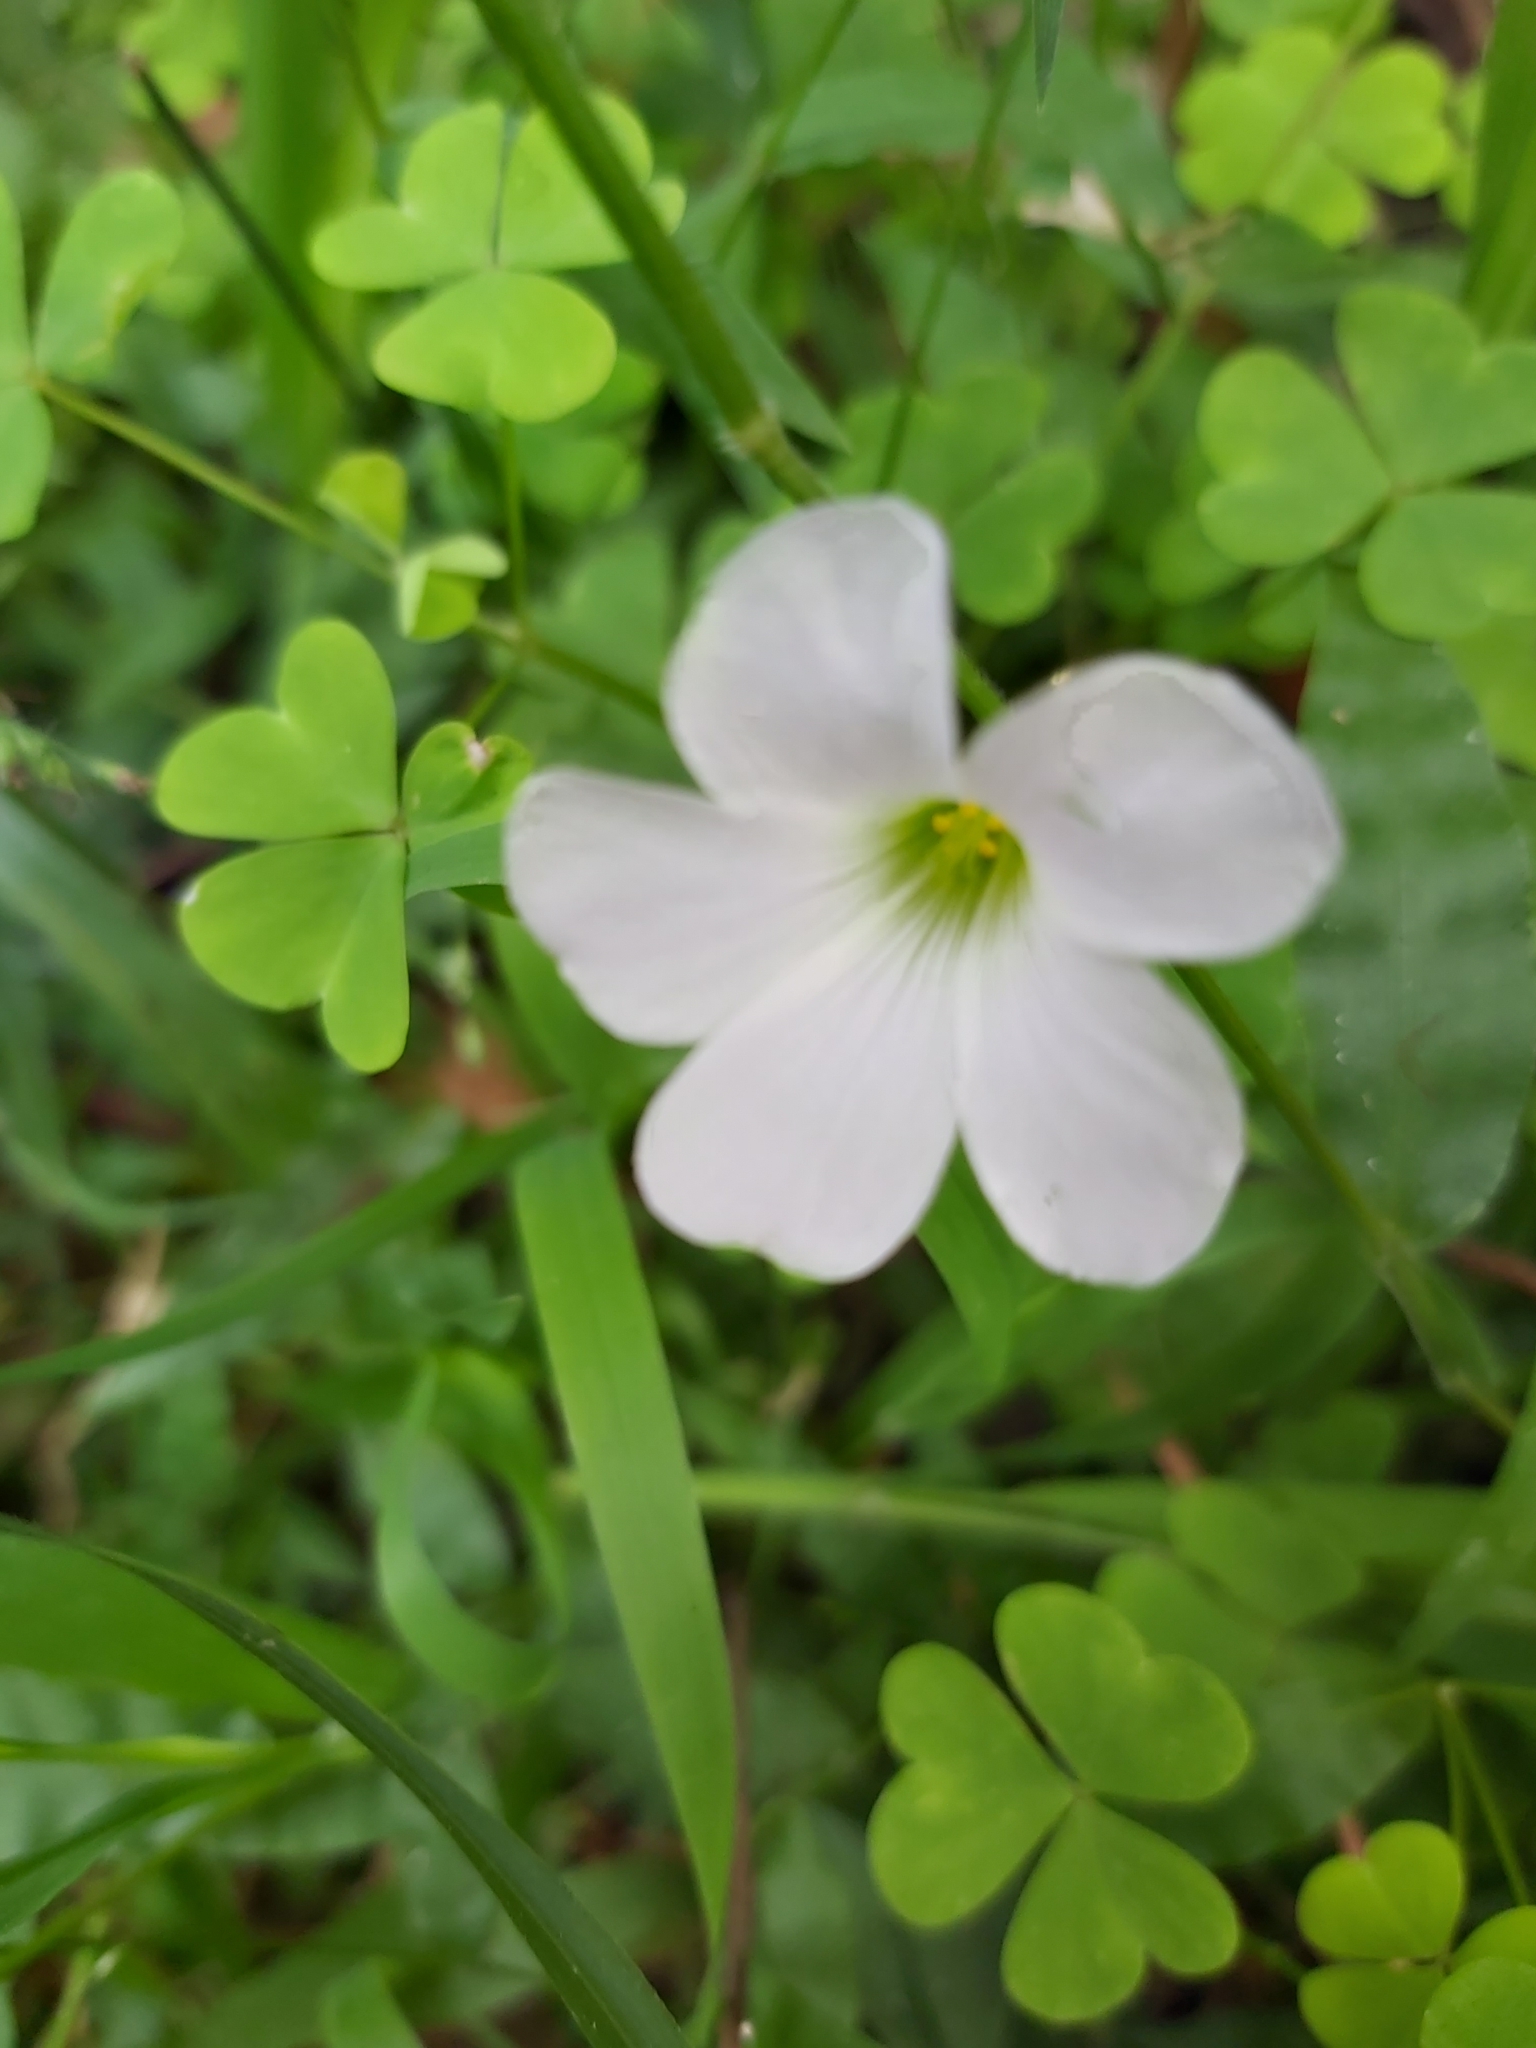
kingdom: Plantae
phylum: Tracheophyta
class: Magnoliopsida
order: Oxalidales
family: Oxalidaceae
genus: Oxalis
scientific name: Oxalis incarnata
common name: Pale pink-sorrel
